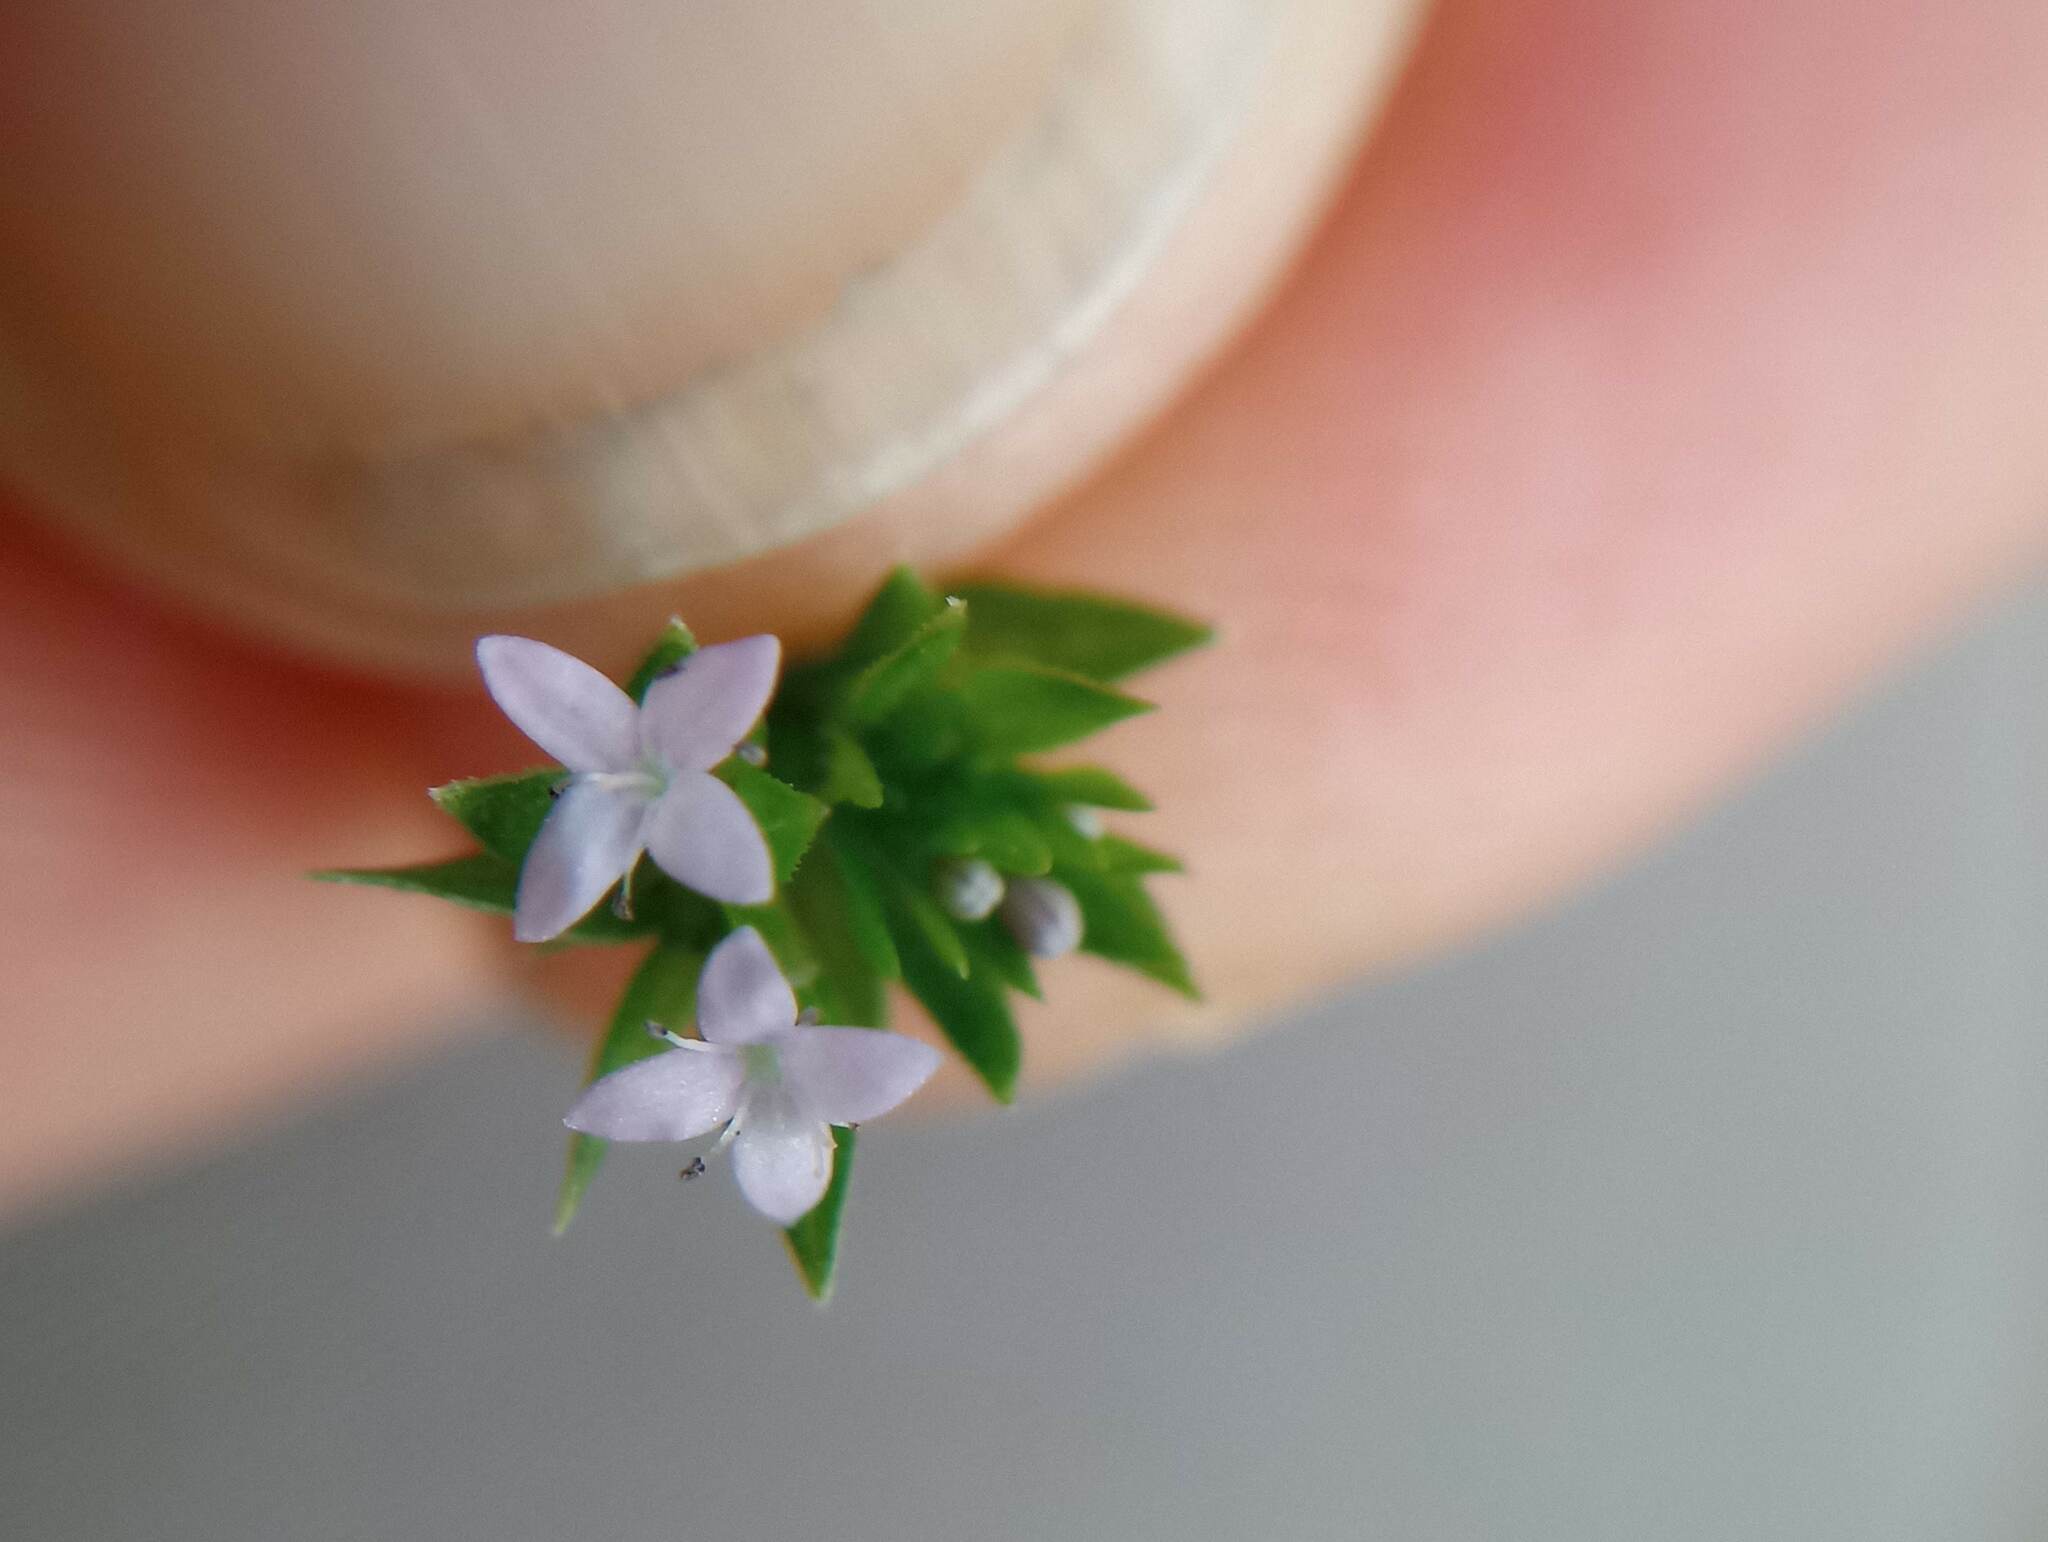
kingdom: Plantae
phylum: Tracheophyta
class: Magnoliopsida
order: Gentianales
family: Rubiaceae
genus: Sherardia
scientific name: Sherardia arvensis
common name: Field madder
